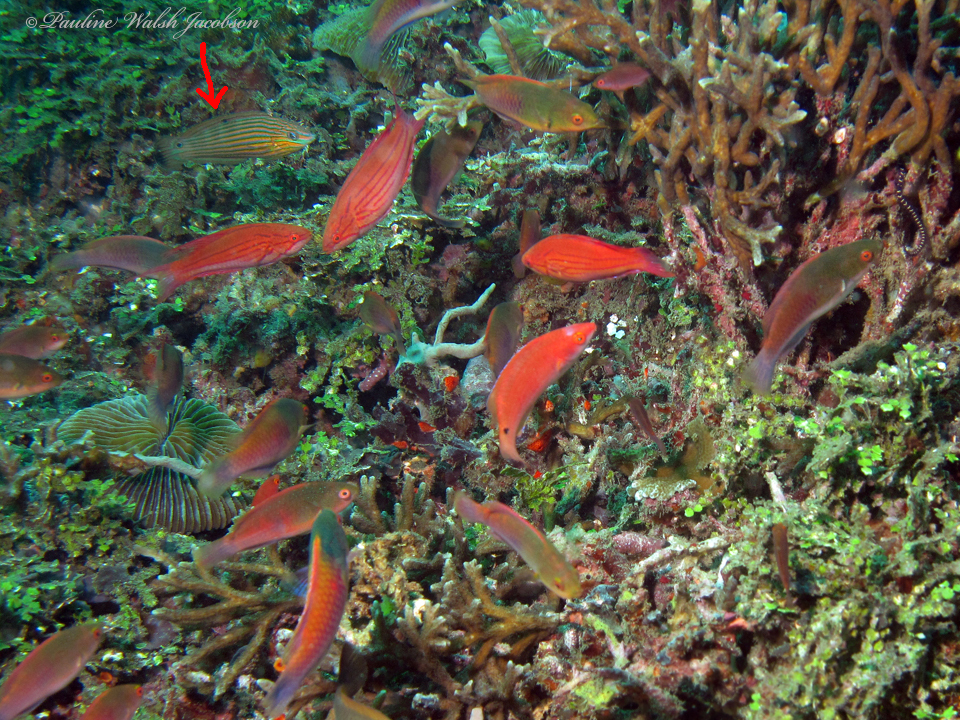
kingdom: Animalia
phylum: Chordata
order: Perciformes
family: Labridae
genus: Halichoeres
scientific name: Halichoeres melanurus
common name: Hoeven's wrasse
